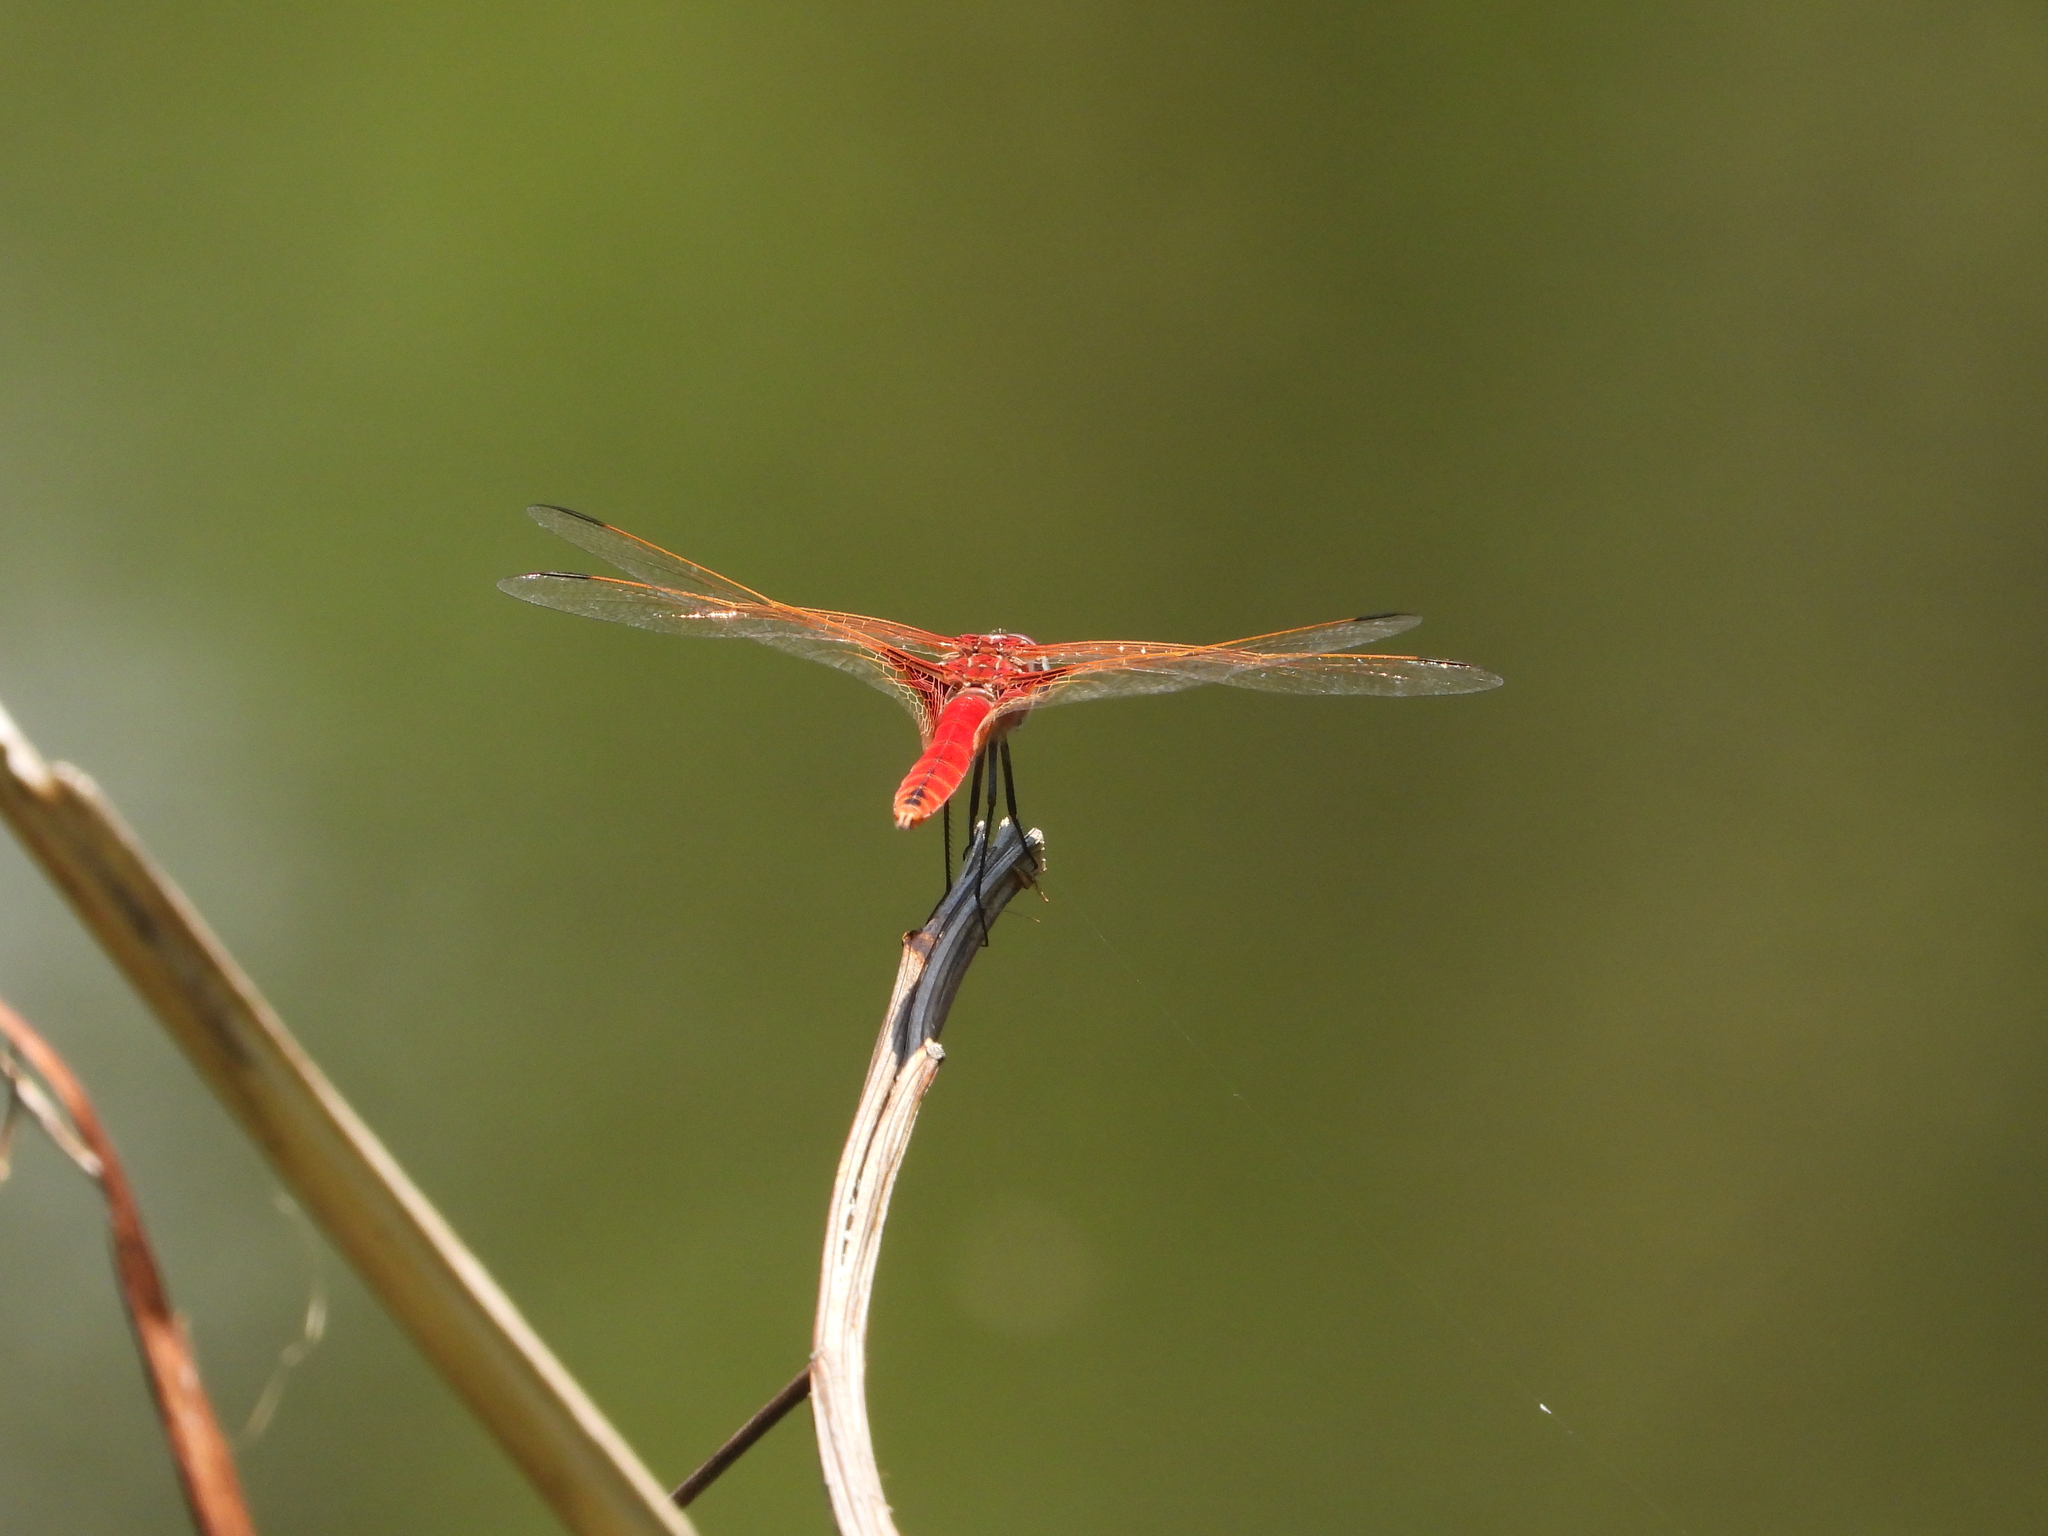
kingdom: Animalia
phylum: Arthropoda
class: Insecta
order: Odonata
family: Libellulidae
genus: Urothemis
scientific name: Urothemis assignata
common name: Red basker
